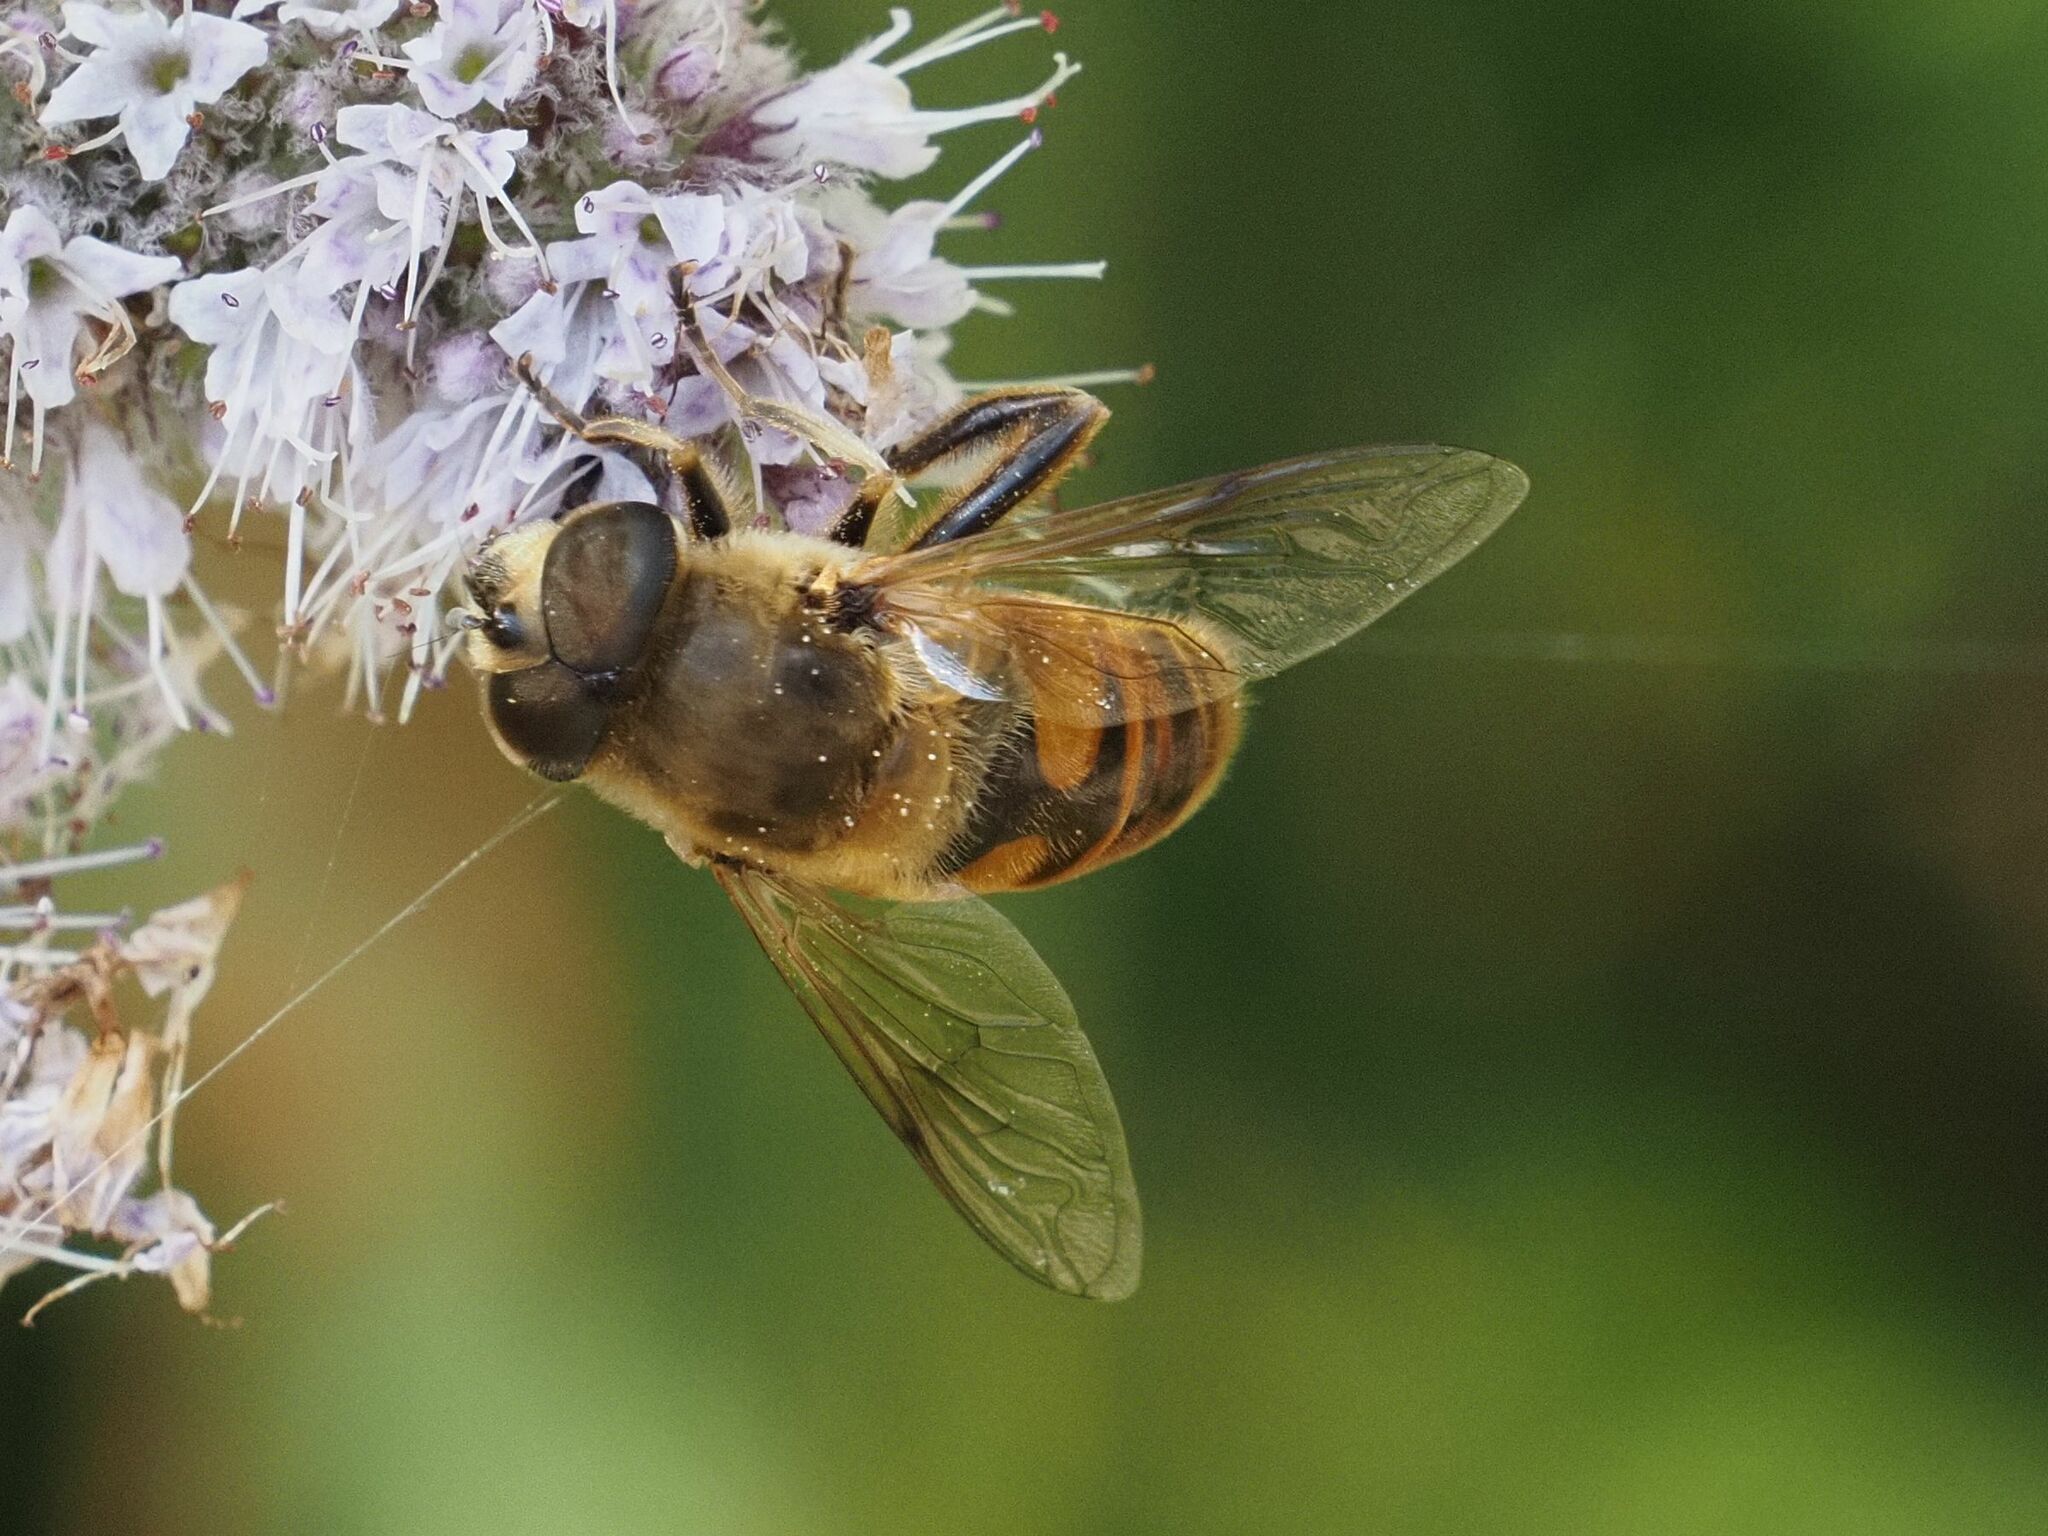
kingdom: Animalia
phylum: Arthropoda
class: Insecta
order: Diptera
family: Syrphidae
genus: Eristalis
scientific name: Eristalis tenax
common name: Drone fly
